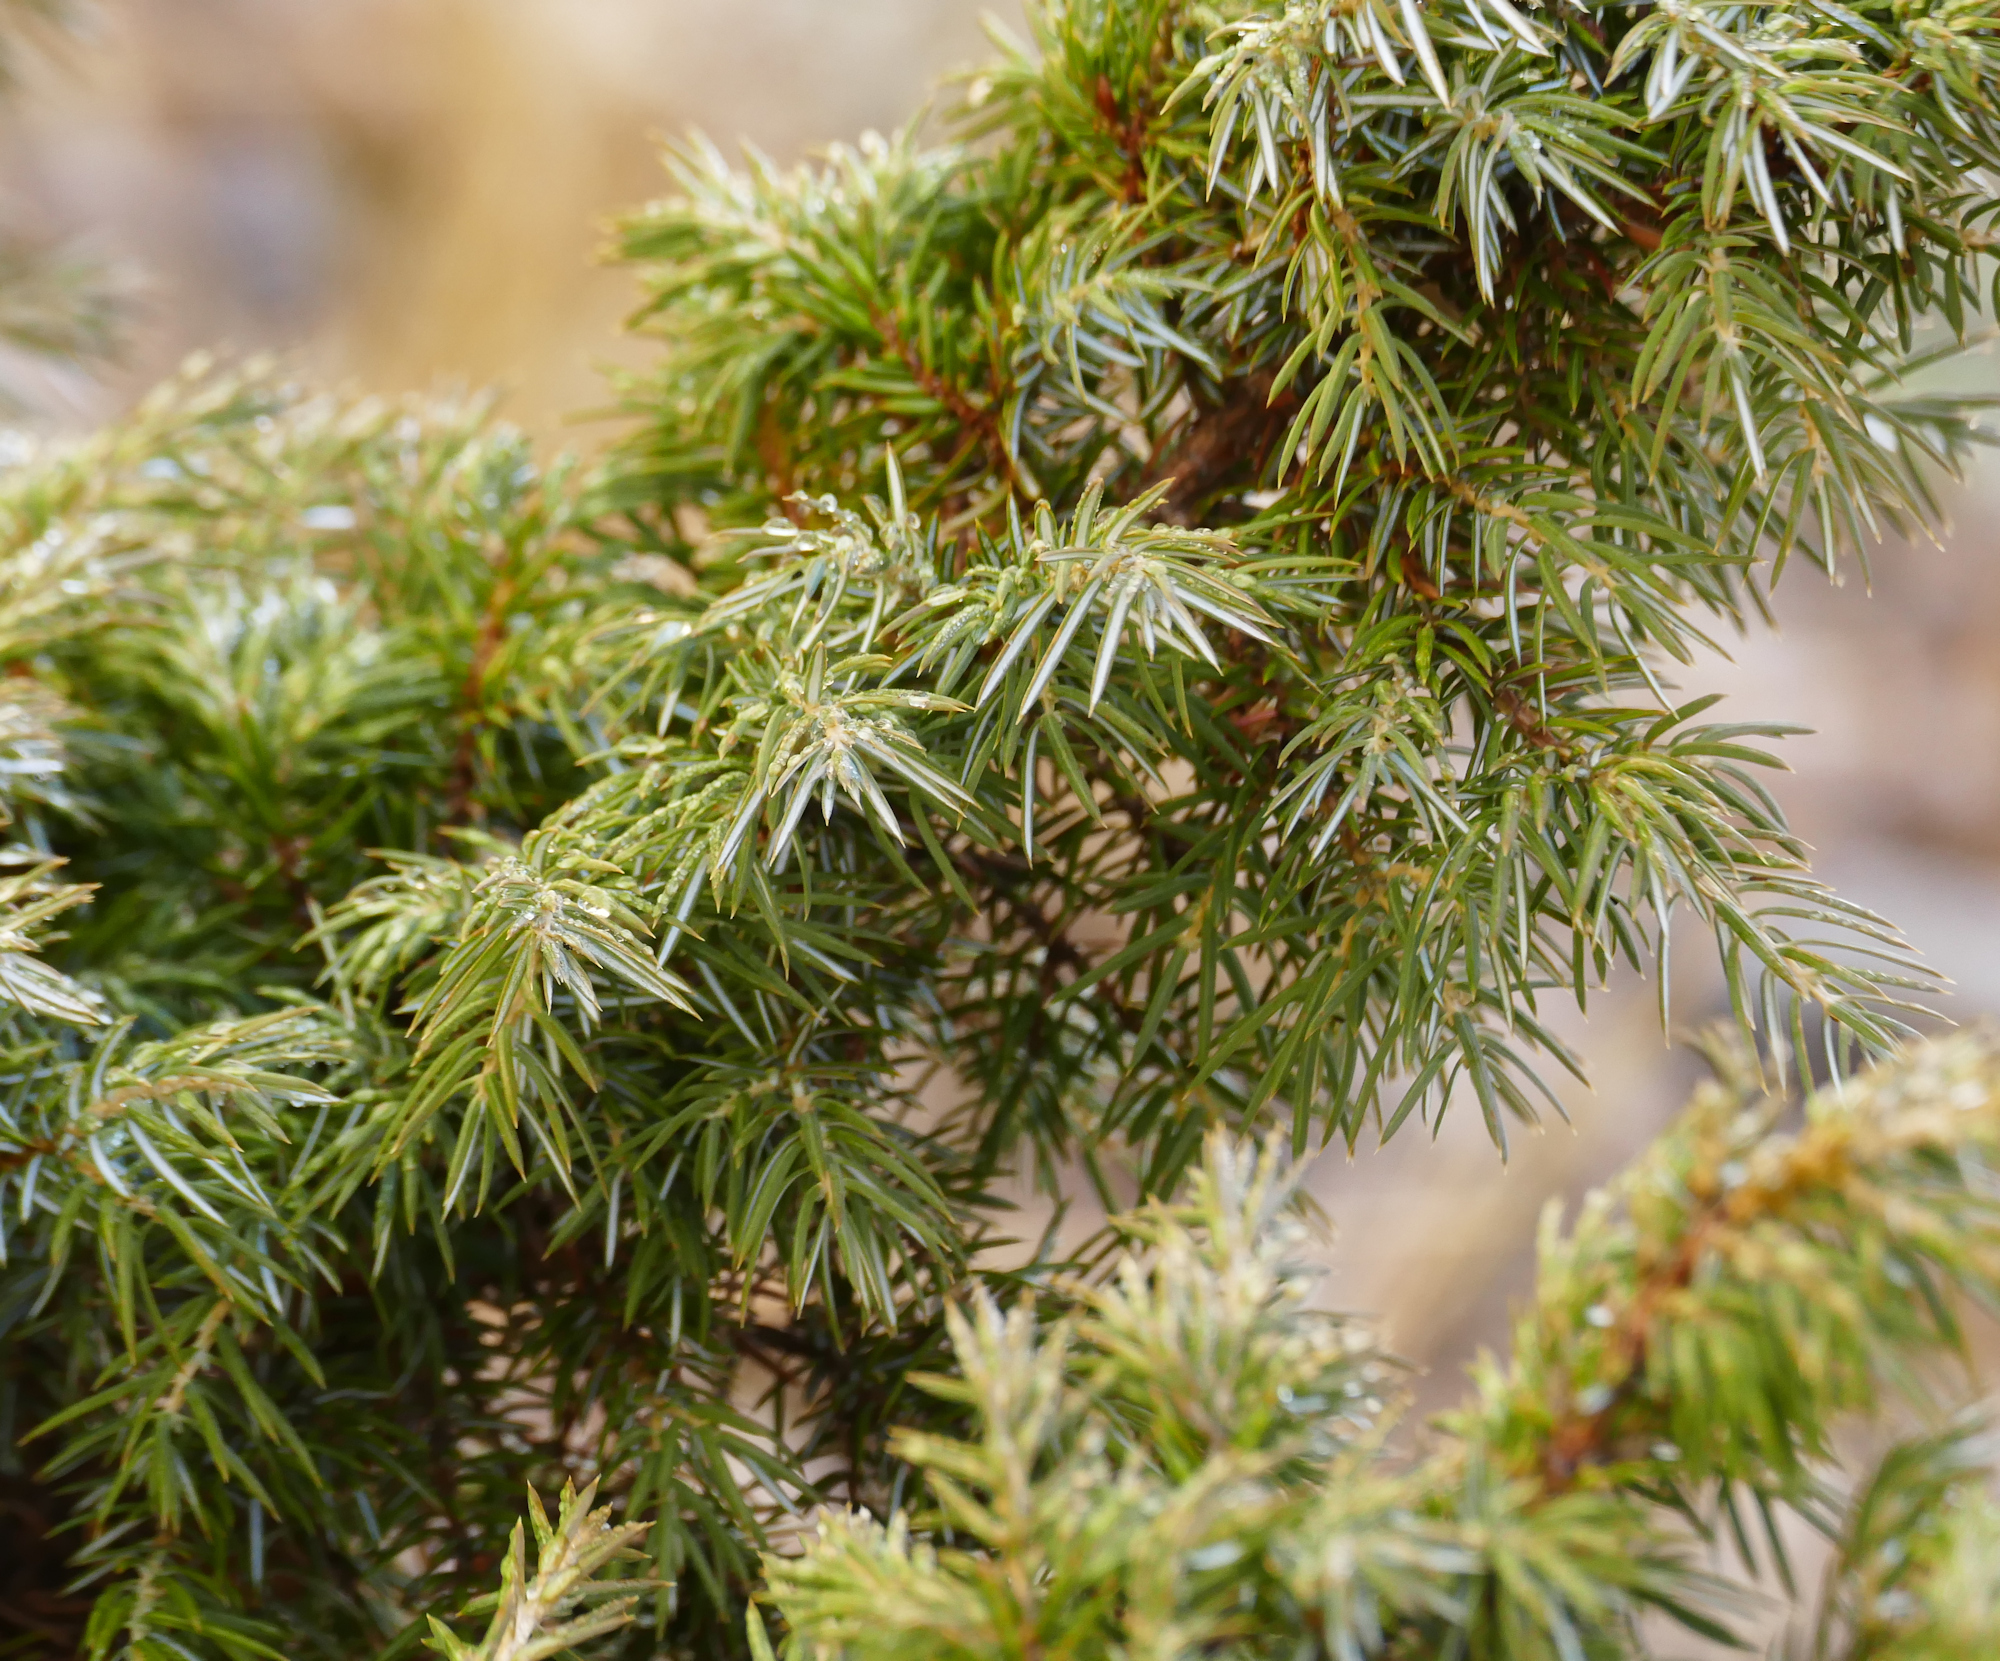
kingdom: Plantae
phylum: Tracheophyta
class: Pinopsida
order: Pinales
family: Cupressaceae
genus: Juniperus
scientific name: Juniperus communis
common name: Common juniper
